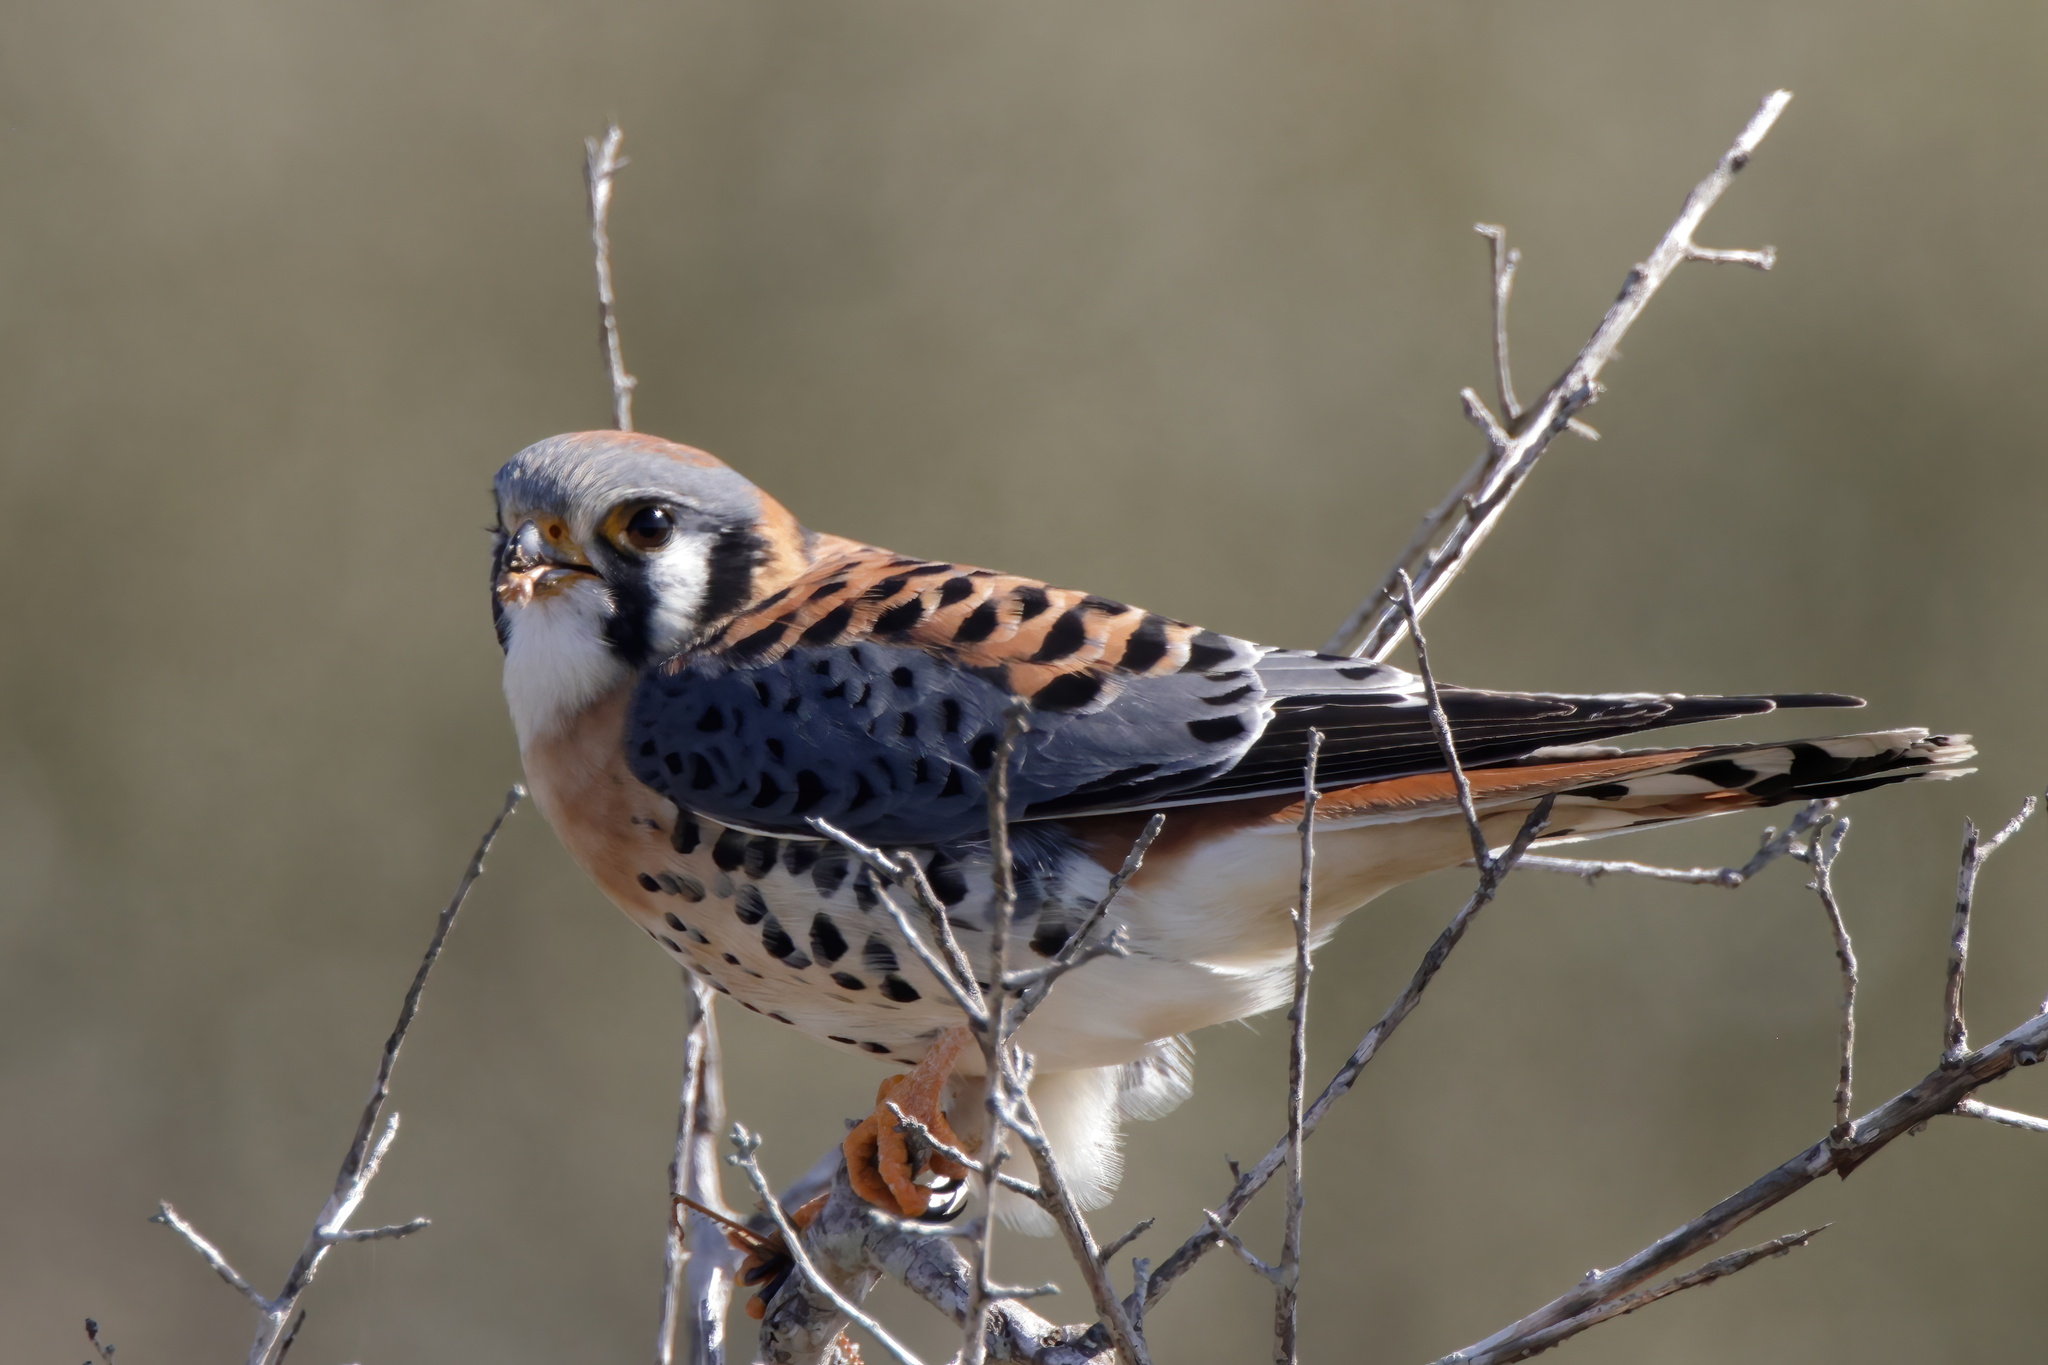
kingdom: Animalia
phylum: Chordata
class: Aves
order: Falconiformes
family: Falconidae
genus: Falco
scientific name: Falco sparverius
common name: American kestrel
